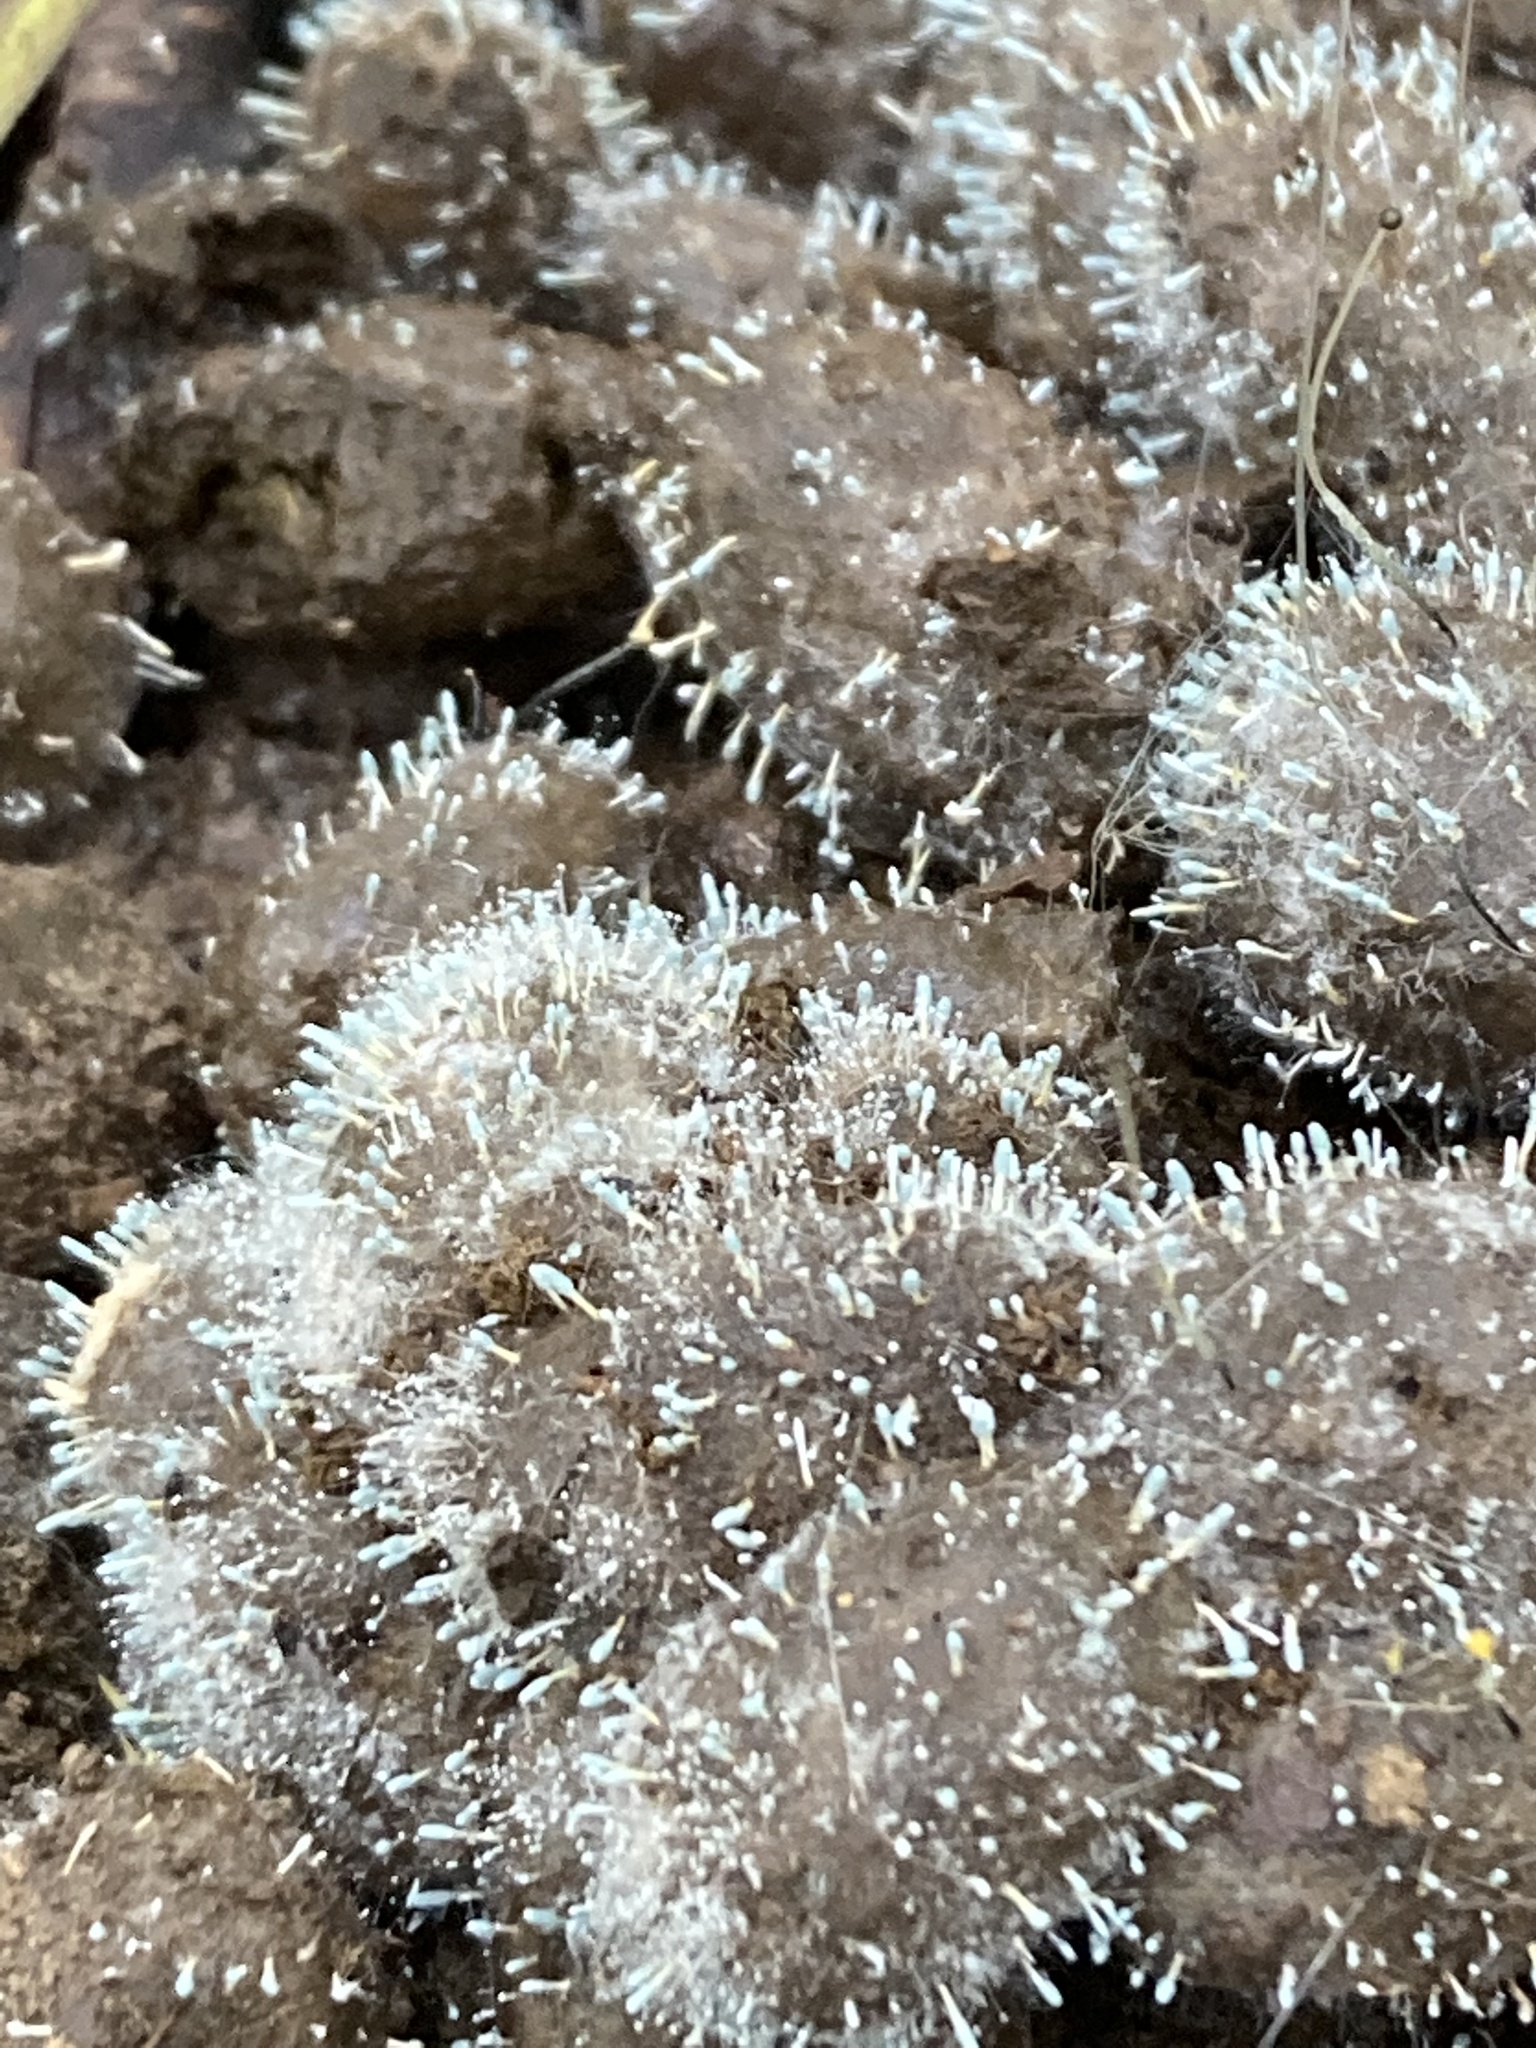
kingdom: Fungi
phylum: Ascomycota
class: Eurotiomycetes
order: Eurotiales
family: Aspergillaceae
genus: Penicillium
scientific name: Penicillium vulpinum
